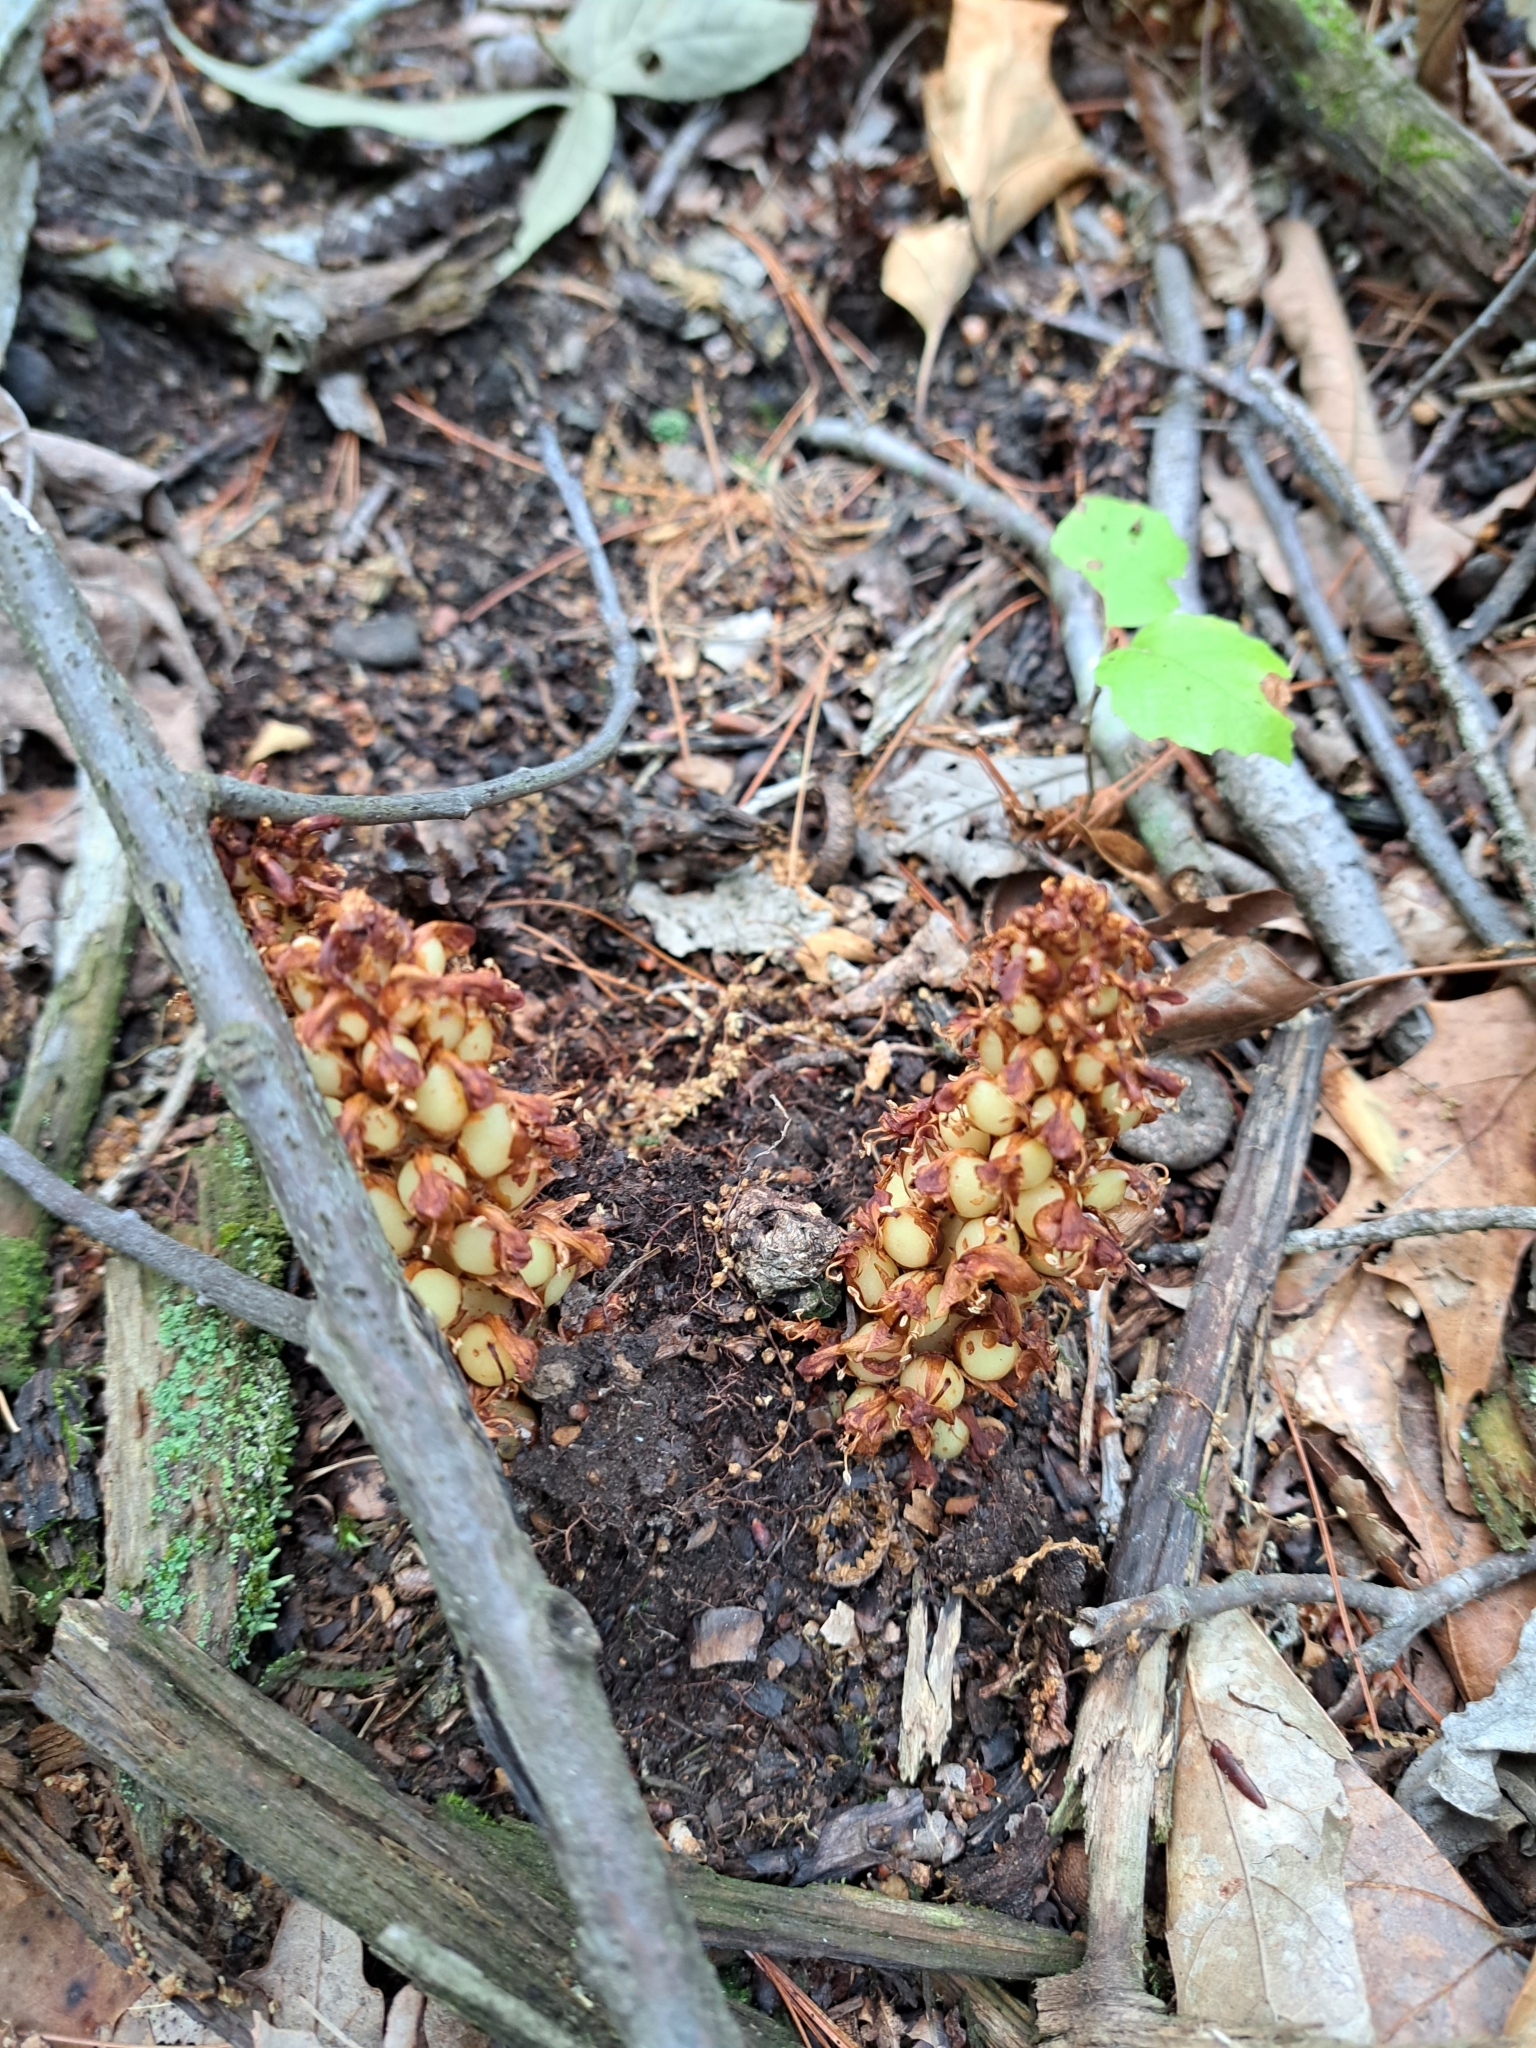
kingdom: Plantae
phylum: Tracheophyta
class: Magnoliopsida
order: Lamiales
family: Orobanchaceae
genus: Conopholis
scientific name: Conopholis americana
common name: American cancer-root
